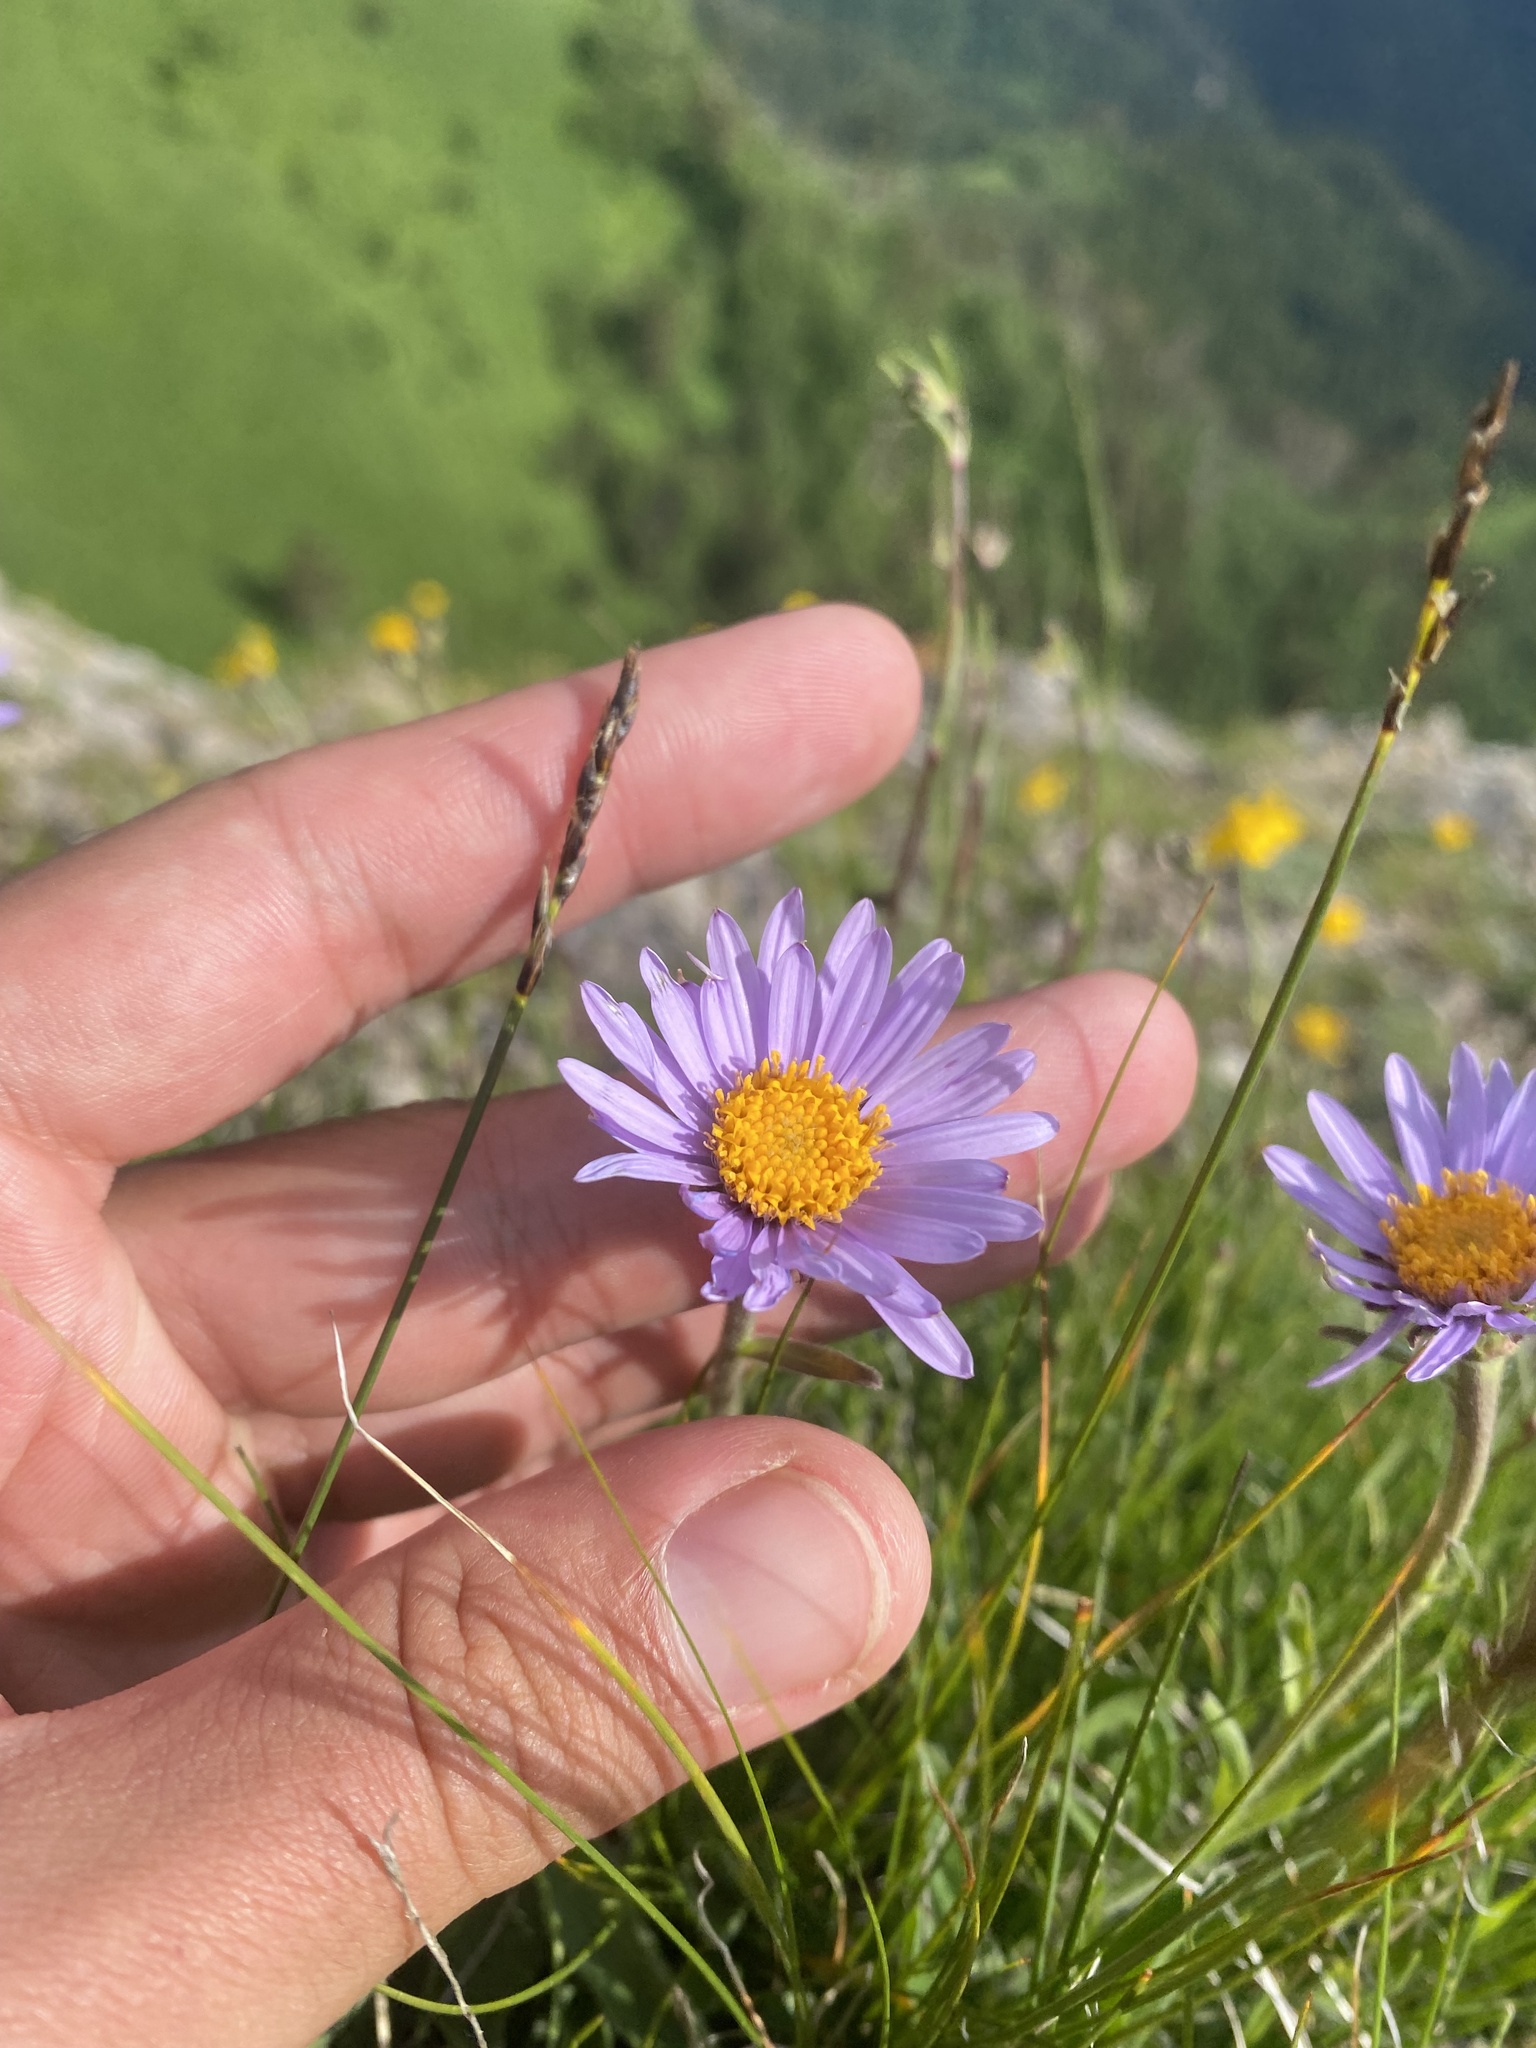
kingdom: Plantae
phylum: Tracheophyta
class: Magnoliopsida
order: Asterales
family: Asteraceae
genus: Aster
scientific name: Aster alpinus
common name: Alpine aster
